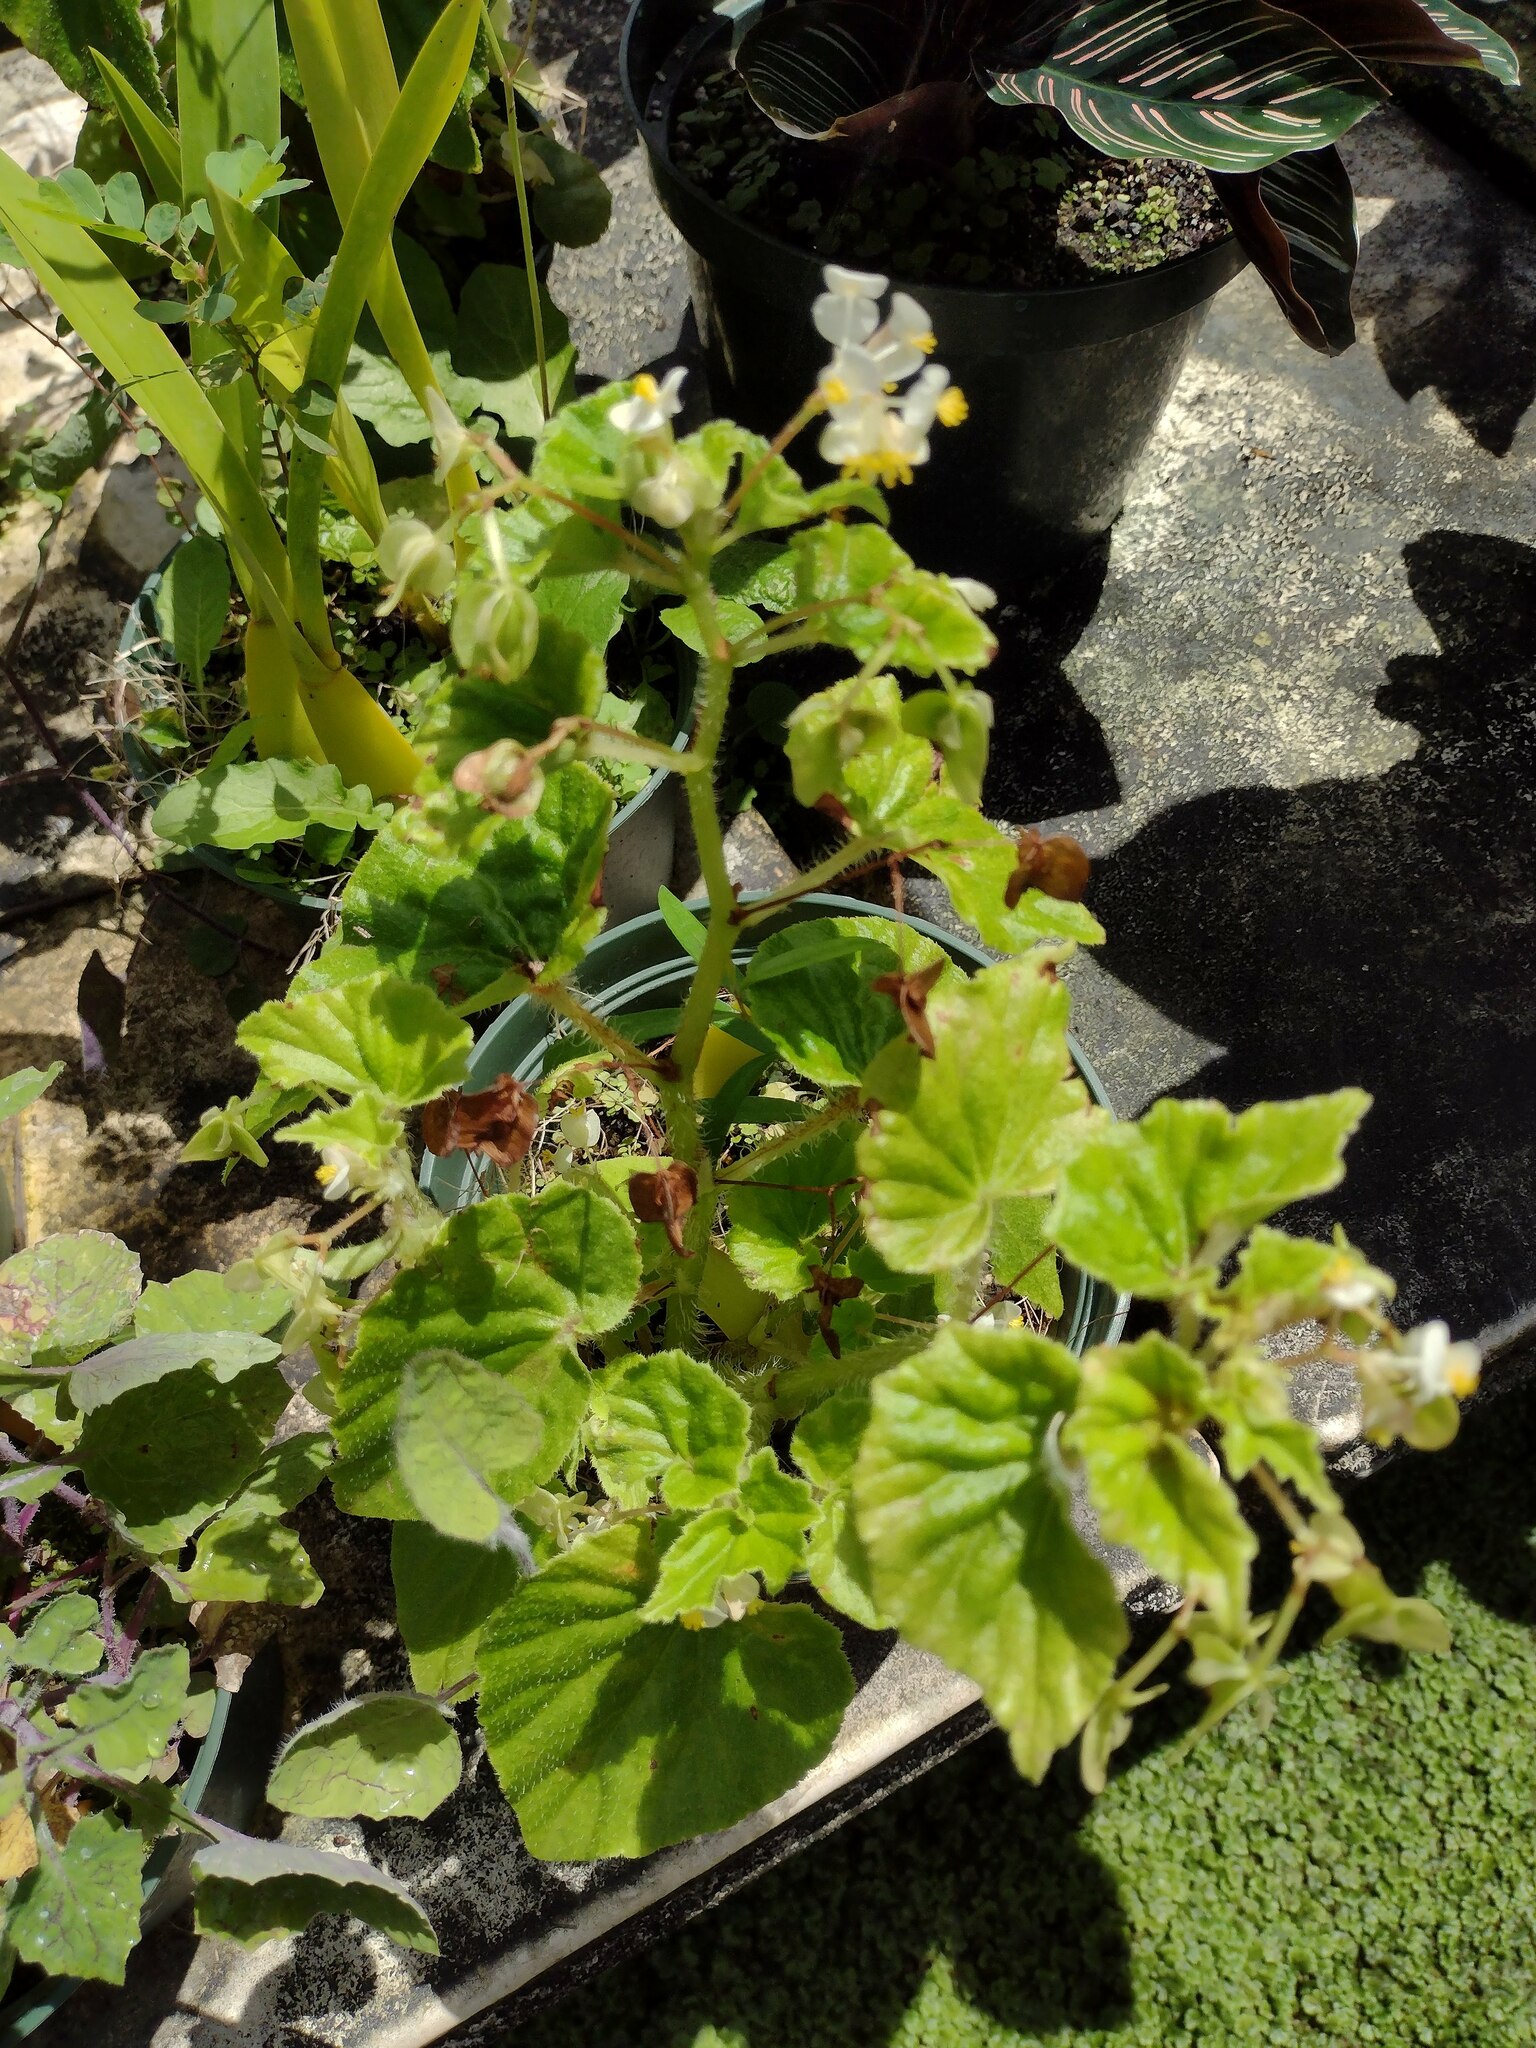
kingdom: Plantae
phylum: Tracheophyta
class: Magnoliopsida
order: Cucurbitales
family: Begoniaceae
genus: Begonia
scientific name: Begonia hirtella
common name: Brazilian begonia
